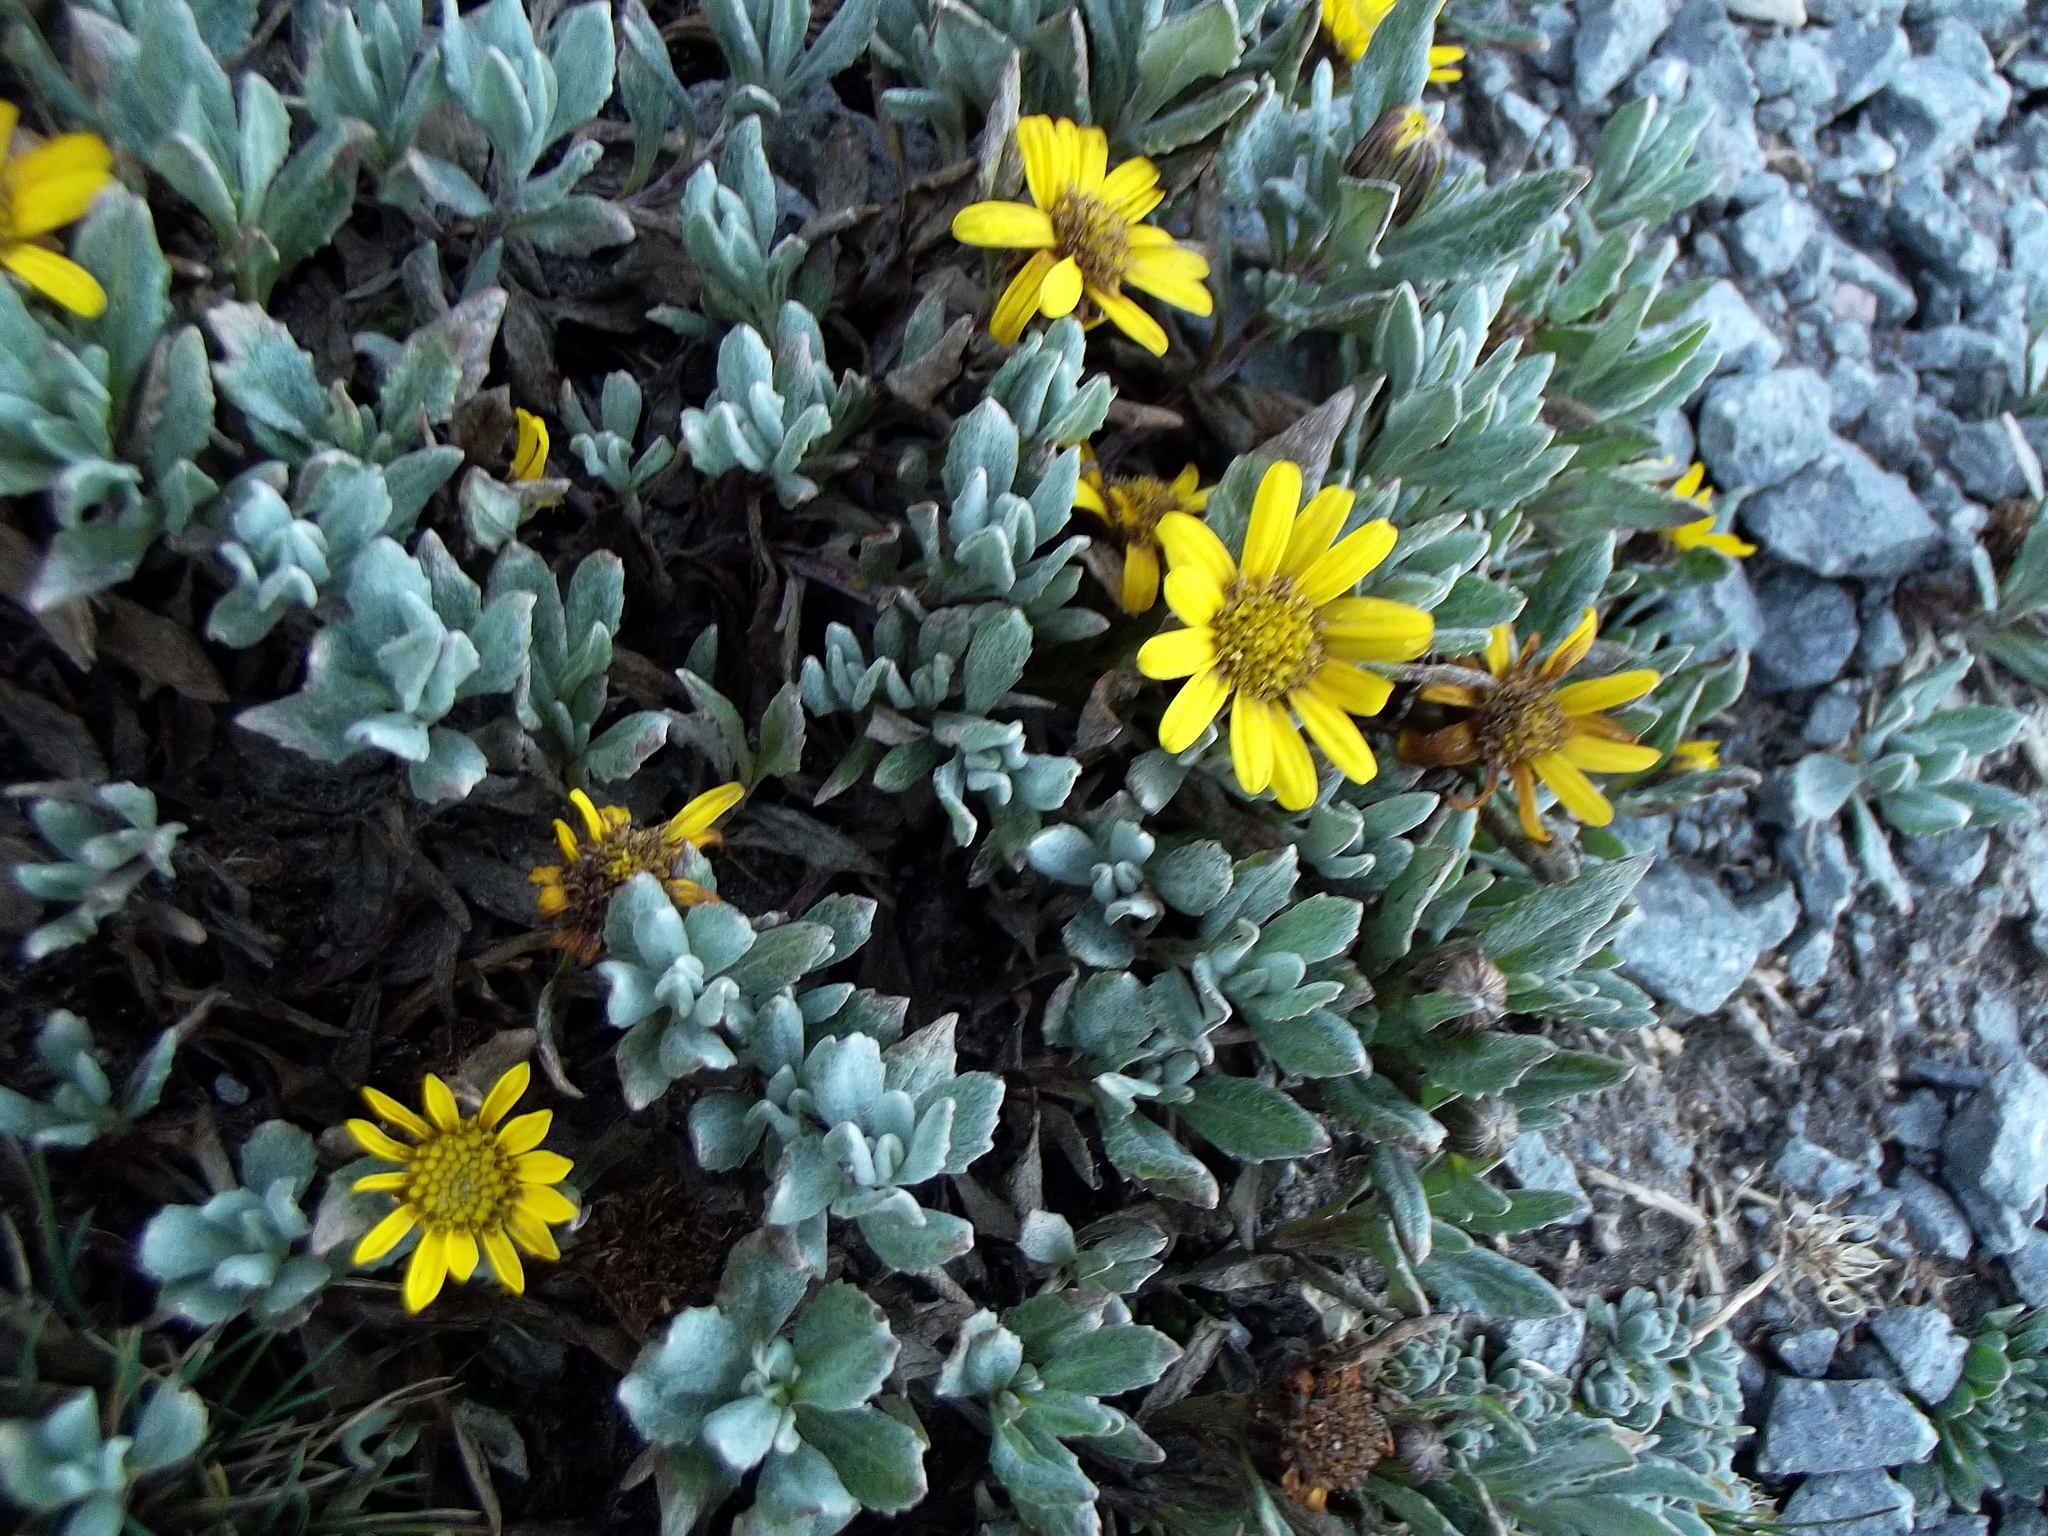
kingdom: Plantae
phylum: Tracheophyta
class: Magnoliopsida
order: Asterales
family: Asteraceae
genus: Senecio
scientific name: Senecio procumbens
